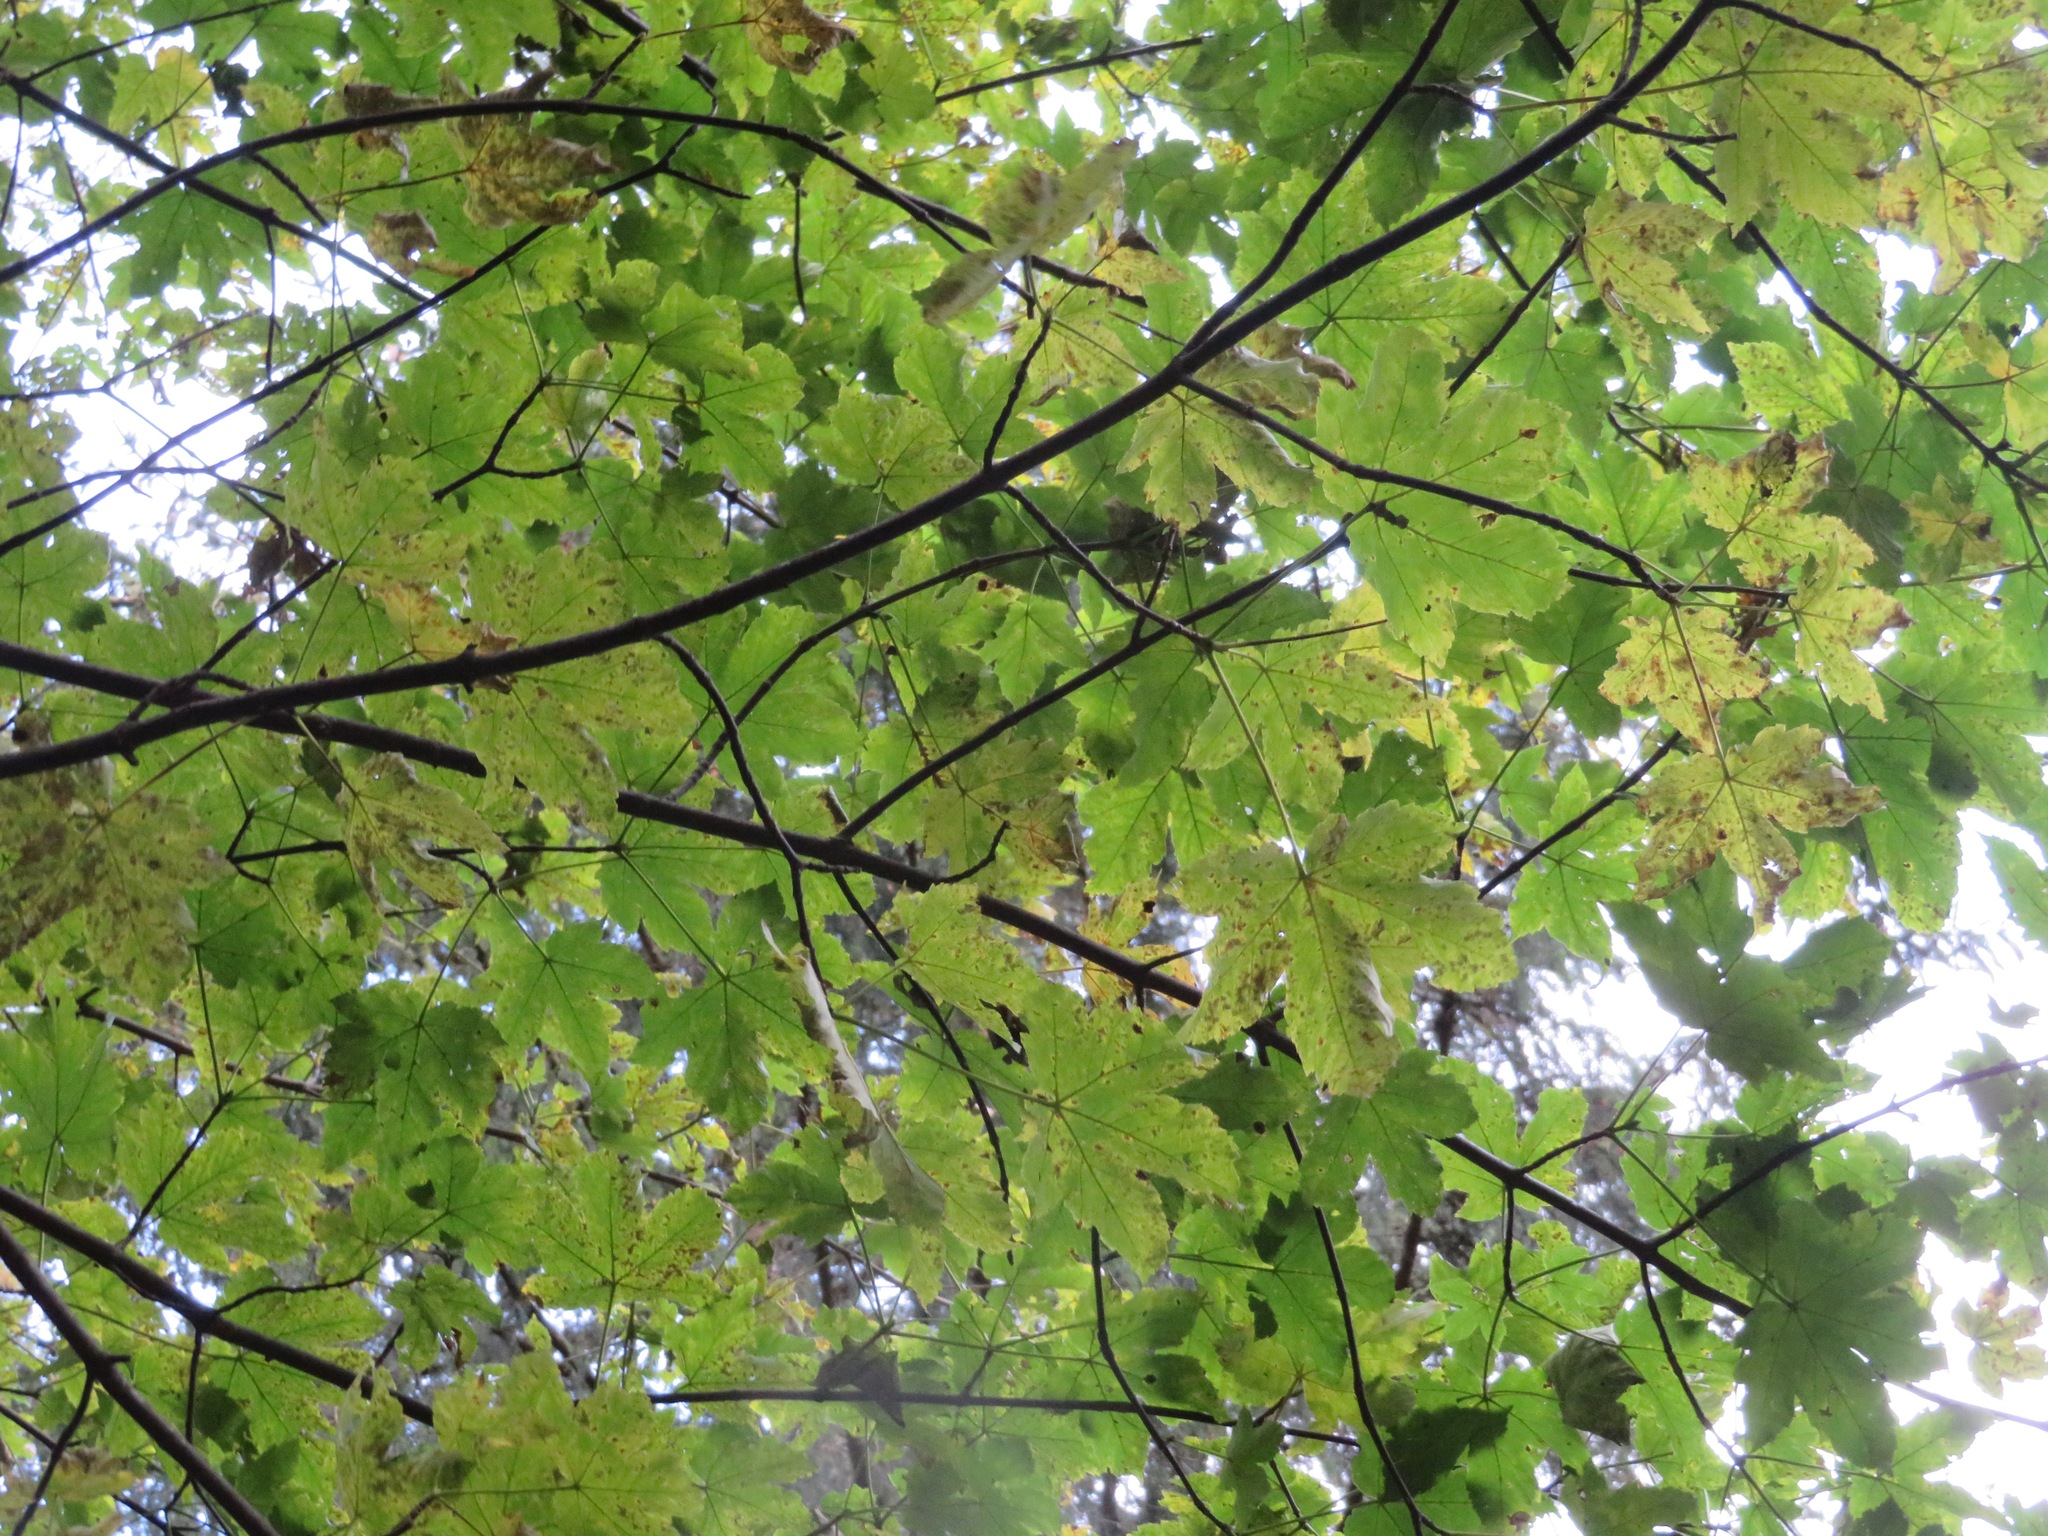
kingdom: Plantae
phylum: Tracheophyta
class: Magnoliopsida
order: Sapindales
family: Sapindaceae
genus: Acer
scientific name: Acer pseudoplatanus
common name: Sycamore
